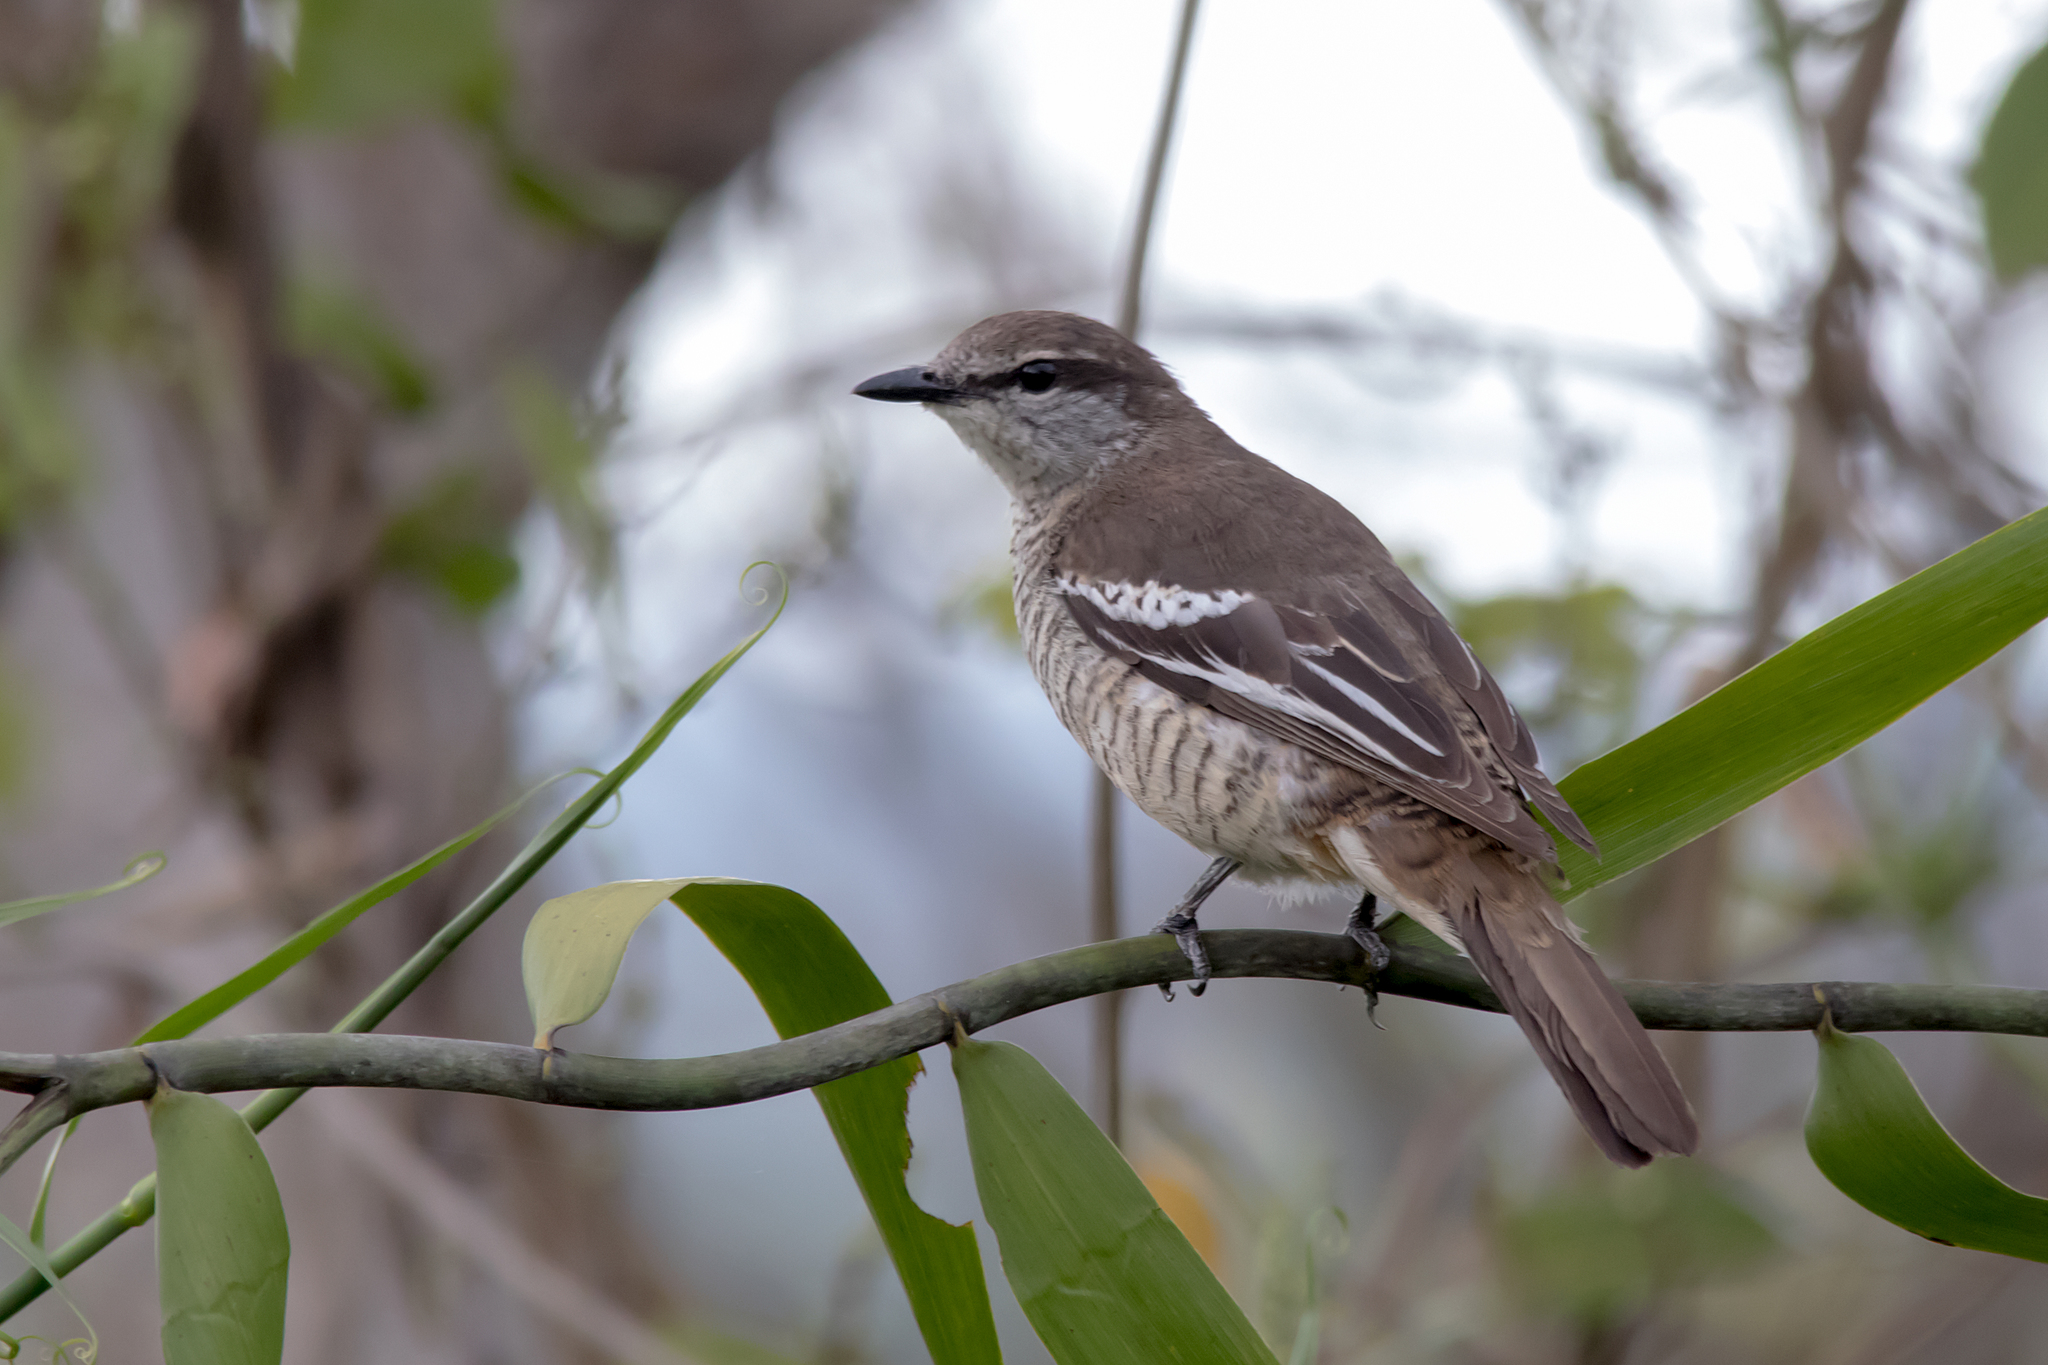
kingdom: Animalia
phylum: Chordata
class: Aves
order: Passeriformes
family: Campephagidae
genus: Lalage
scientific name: Lalage leucomela
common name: Varied triller
